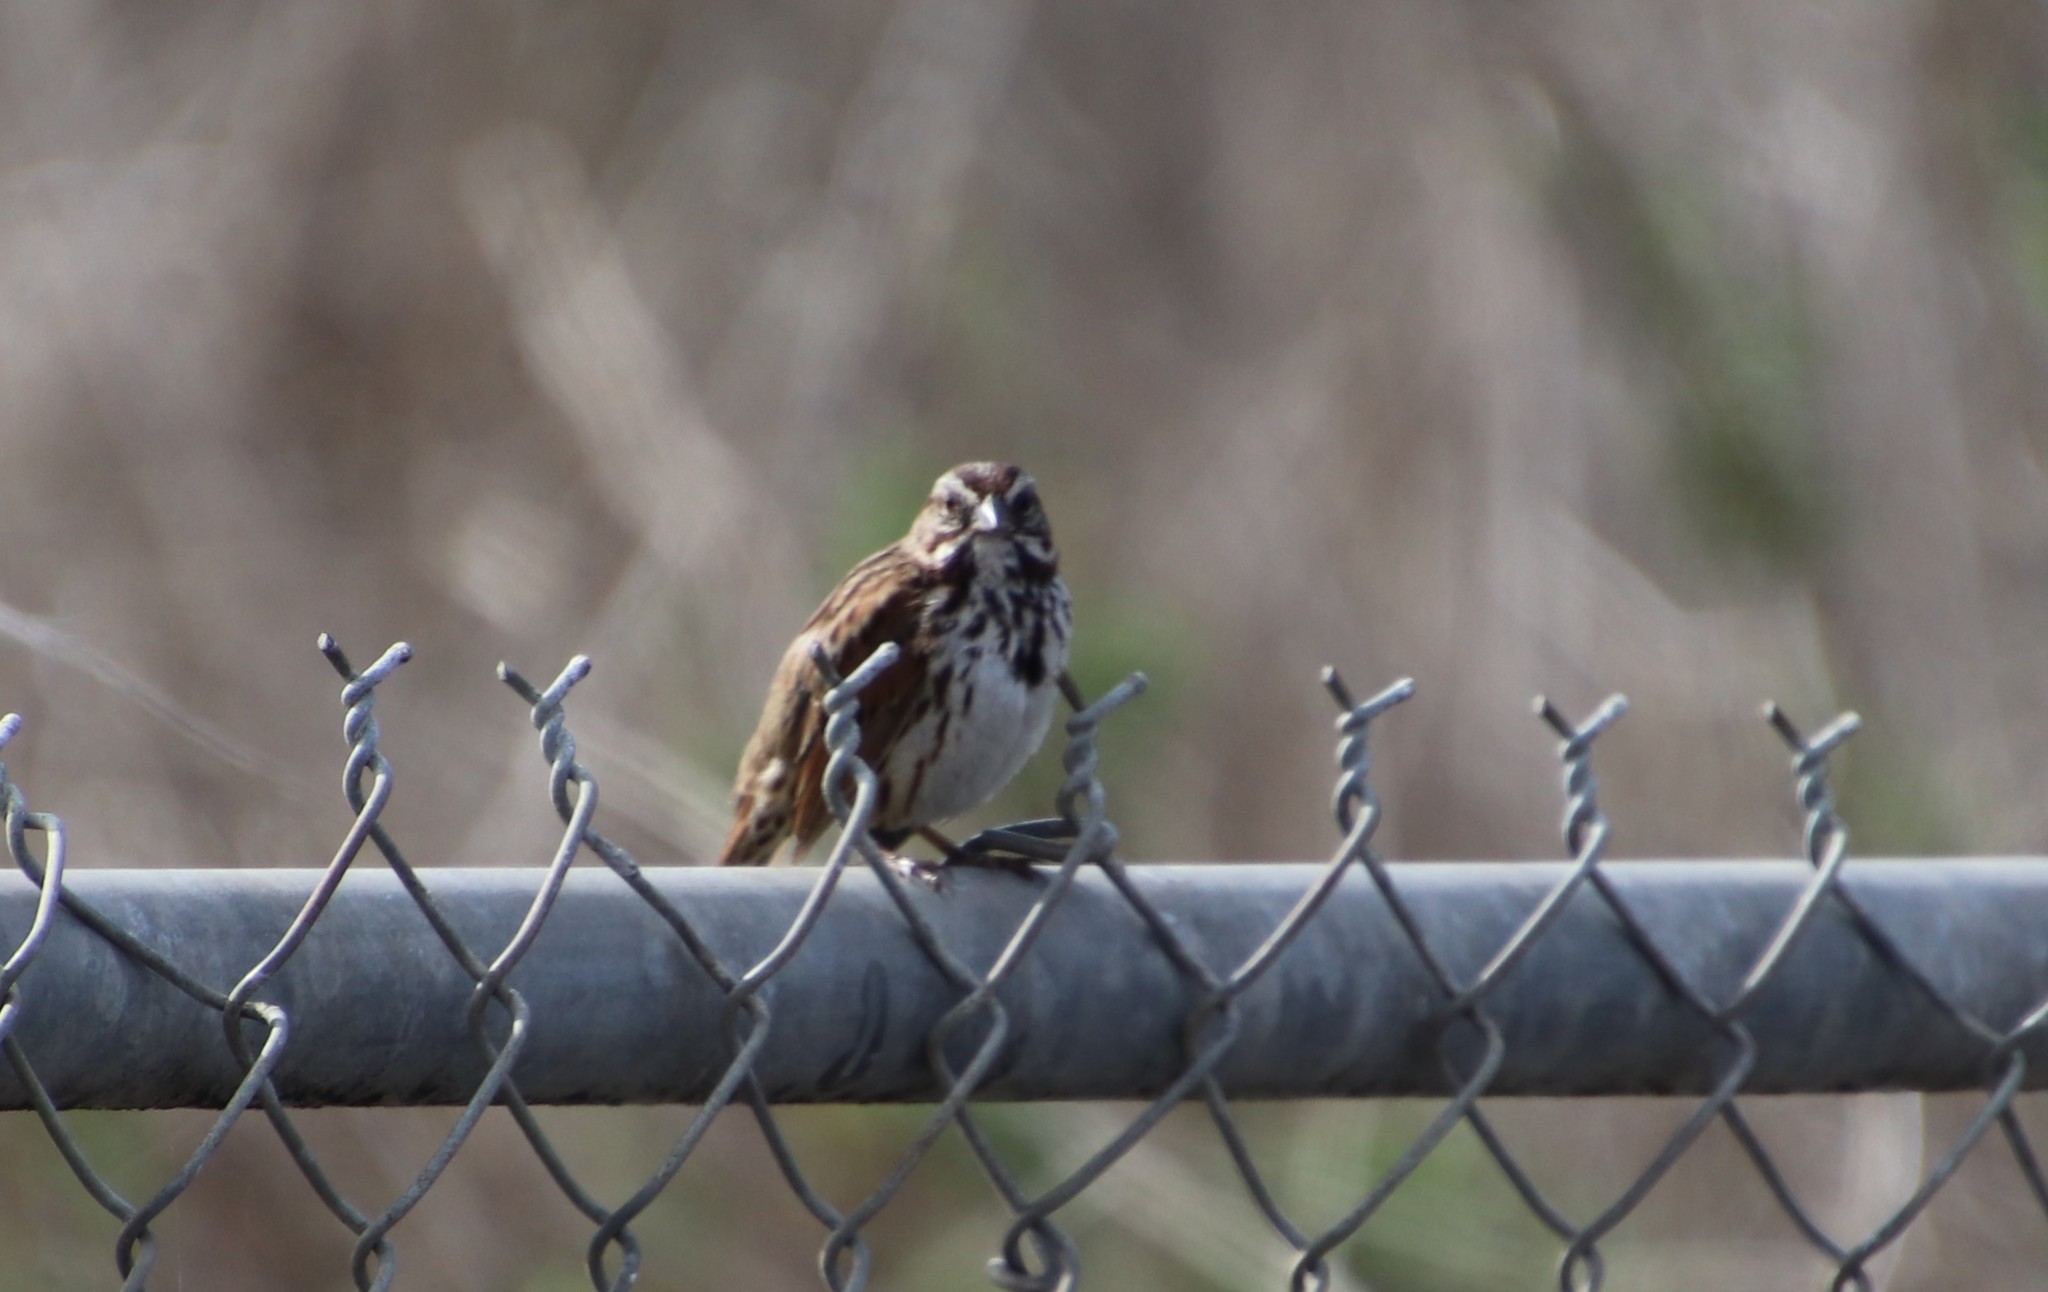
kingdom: Animalia
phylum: Chordata
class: Aves
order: Passeriformes
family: Passerellidae
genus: Melospiza
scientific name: Melospiza melodia
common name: Song sparrow
